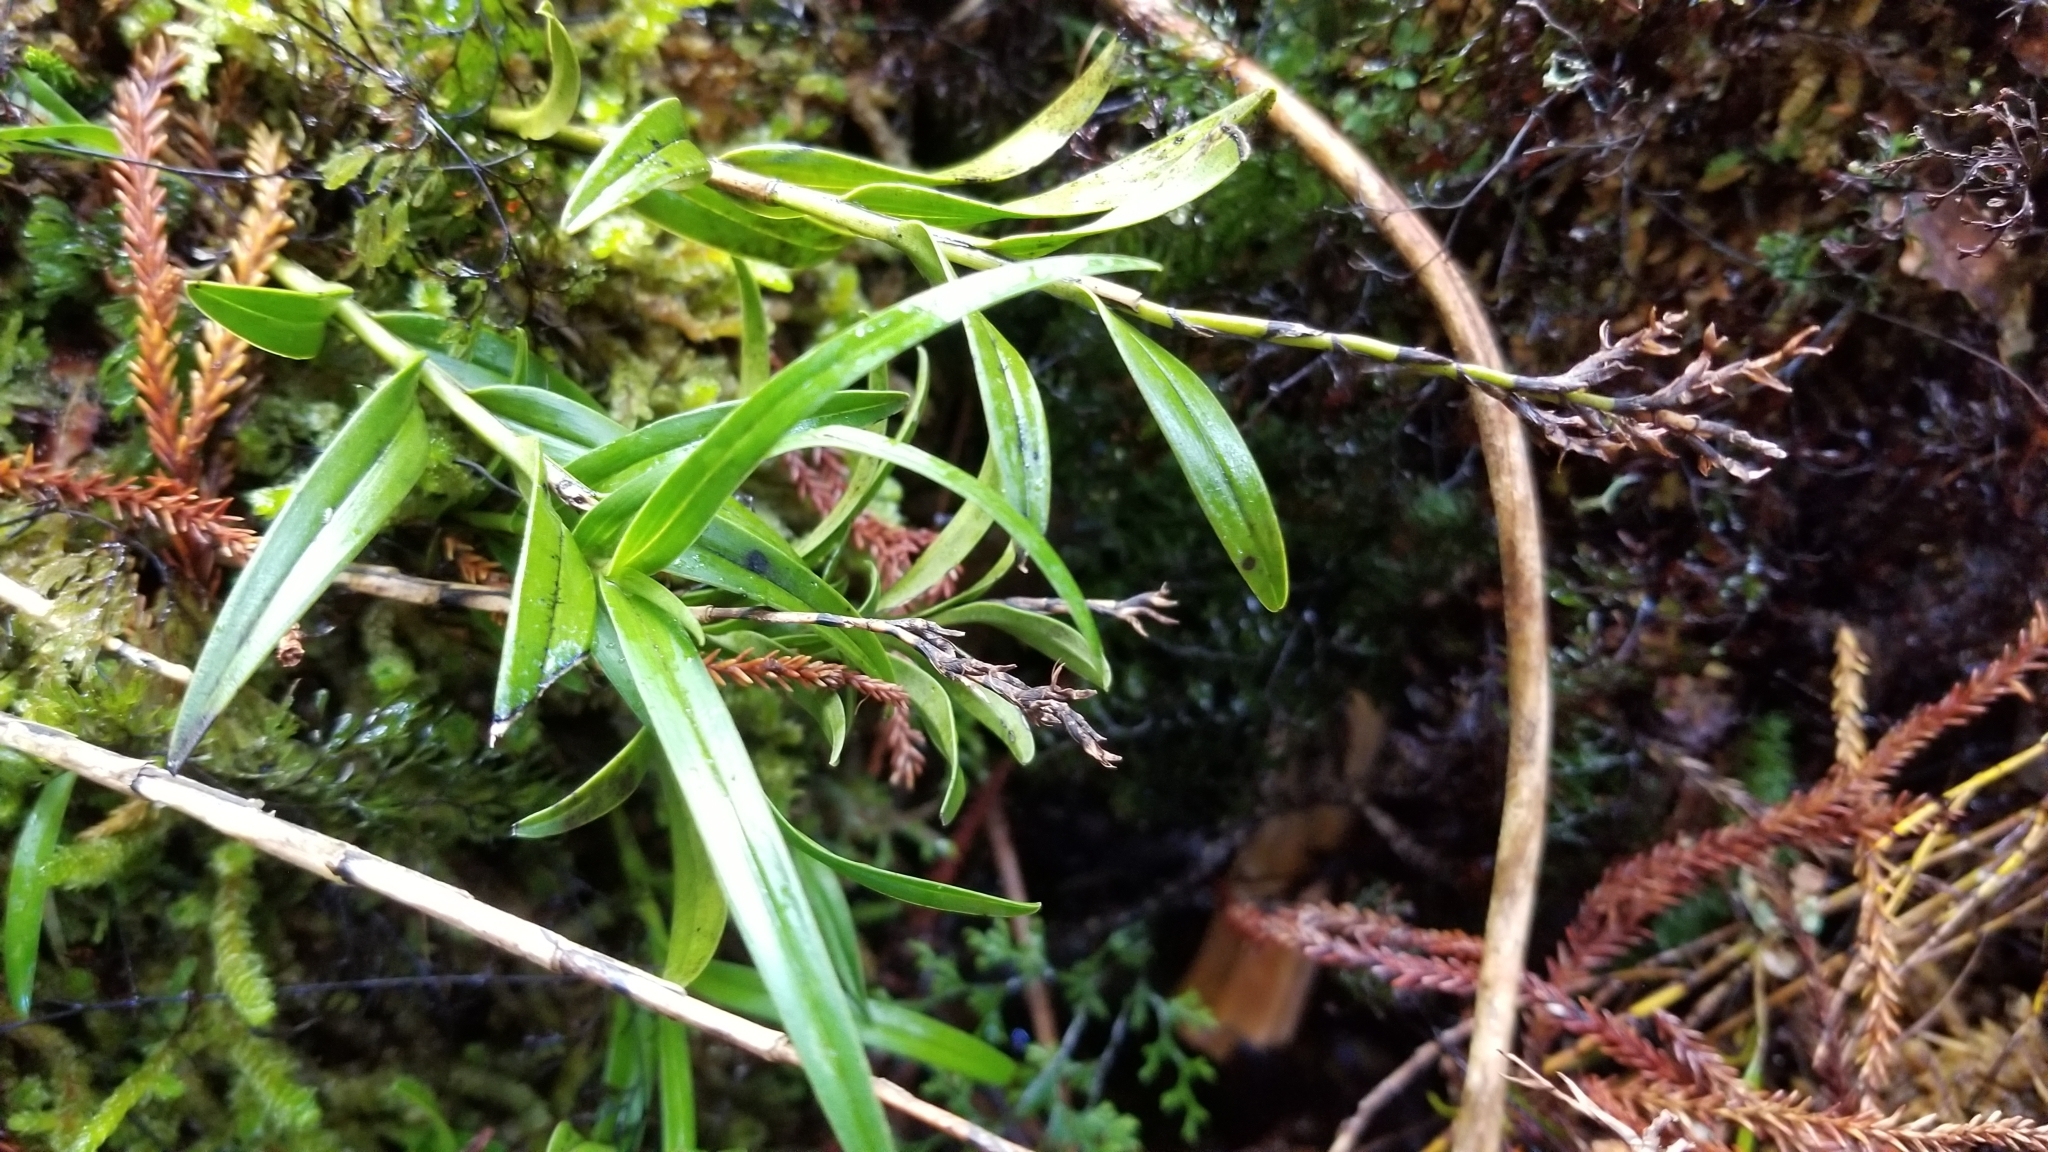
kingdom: Plantae
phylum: Tracheophyta
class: Liliopsida
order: Asparagales
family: Orchidaceae
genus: Earina
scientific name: Earina autumnalis
